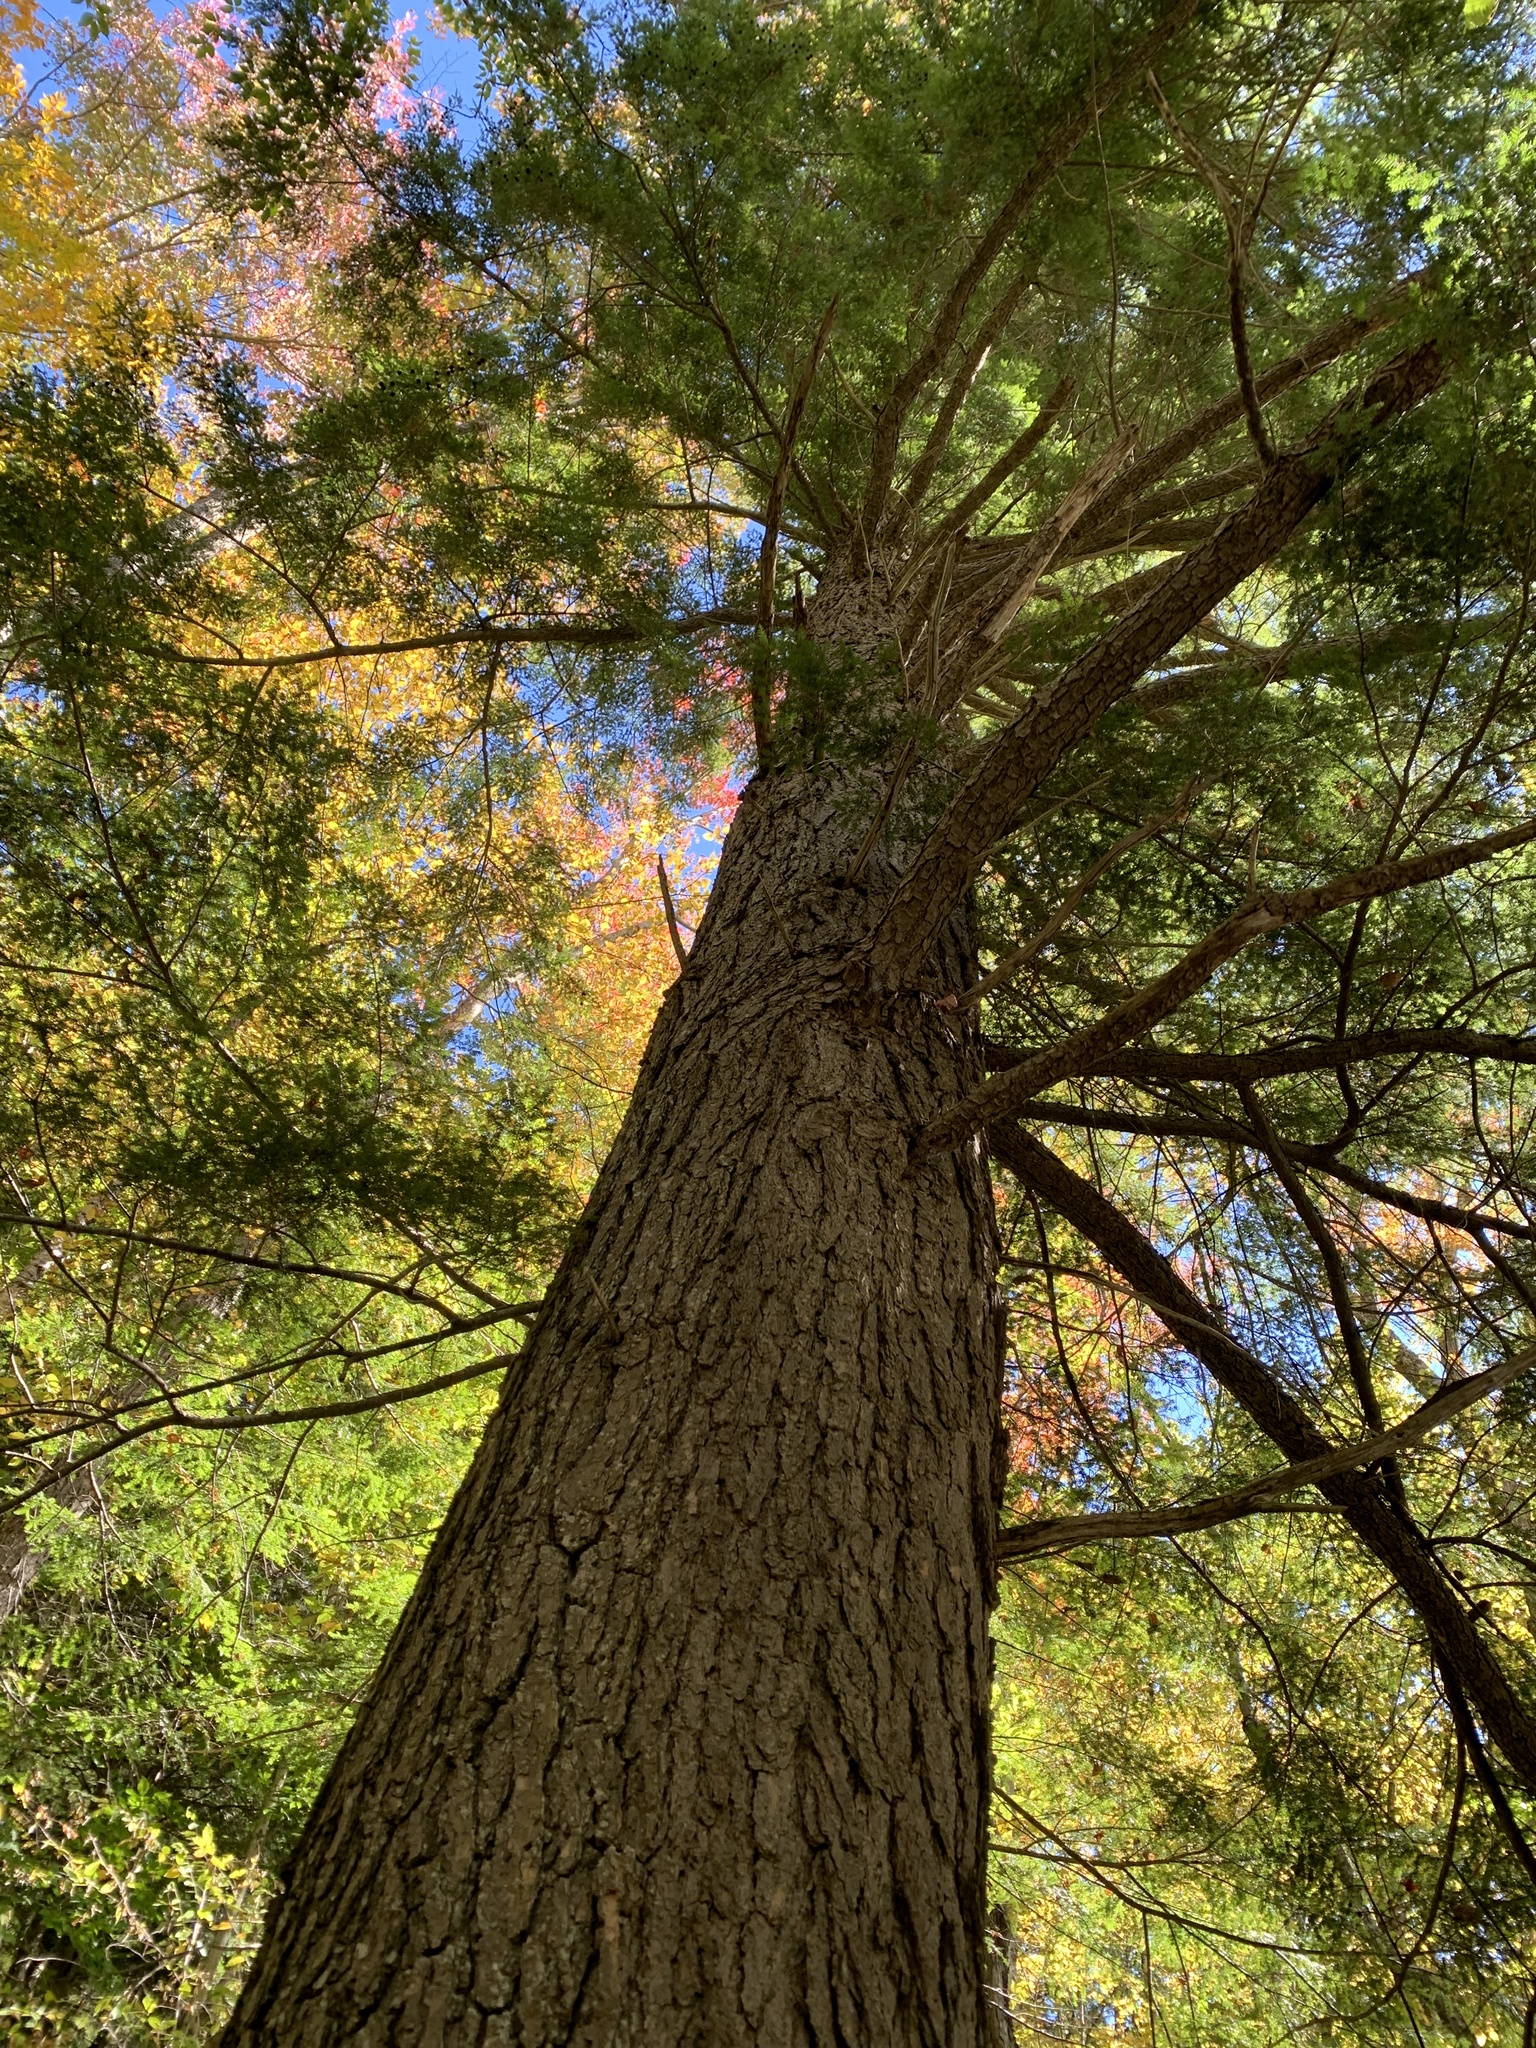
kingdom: Plantae
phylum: Tracheophyta
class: Pinopsida
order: Pinales
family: Pinaceae
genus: Tsuga
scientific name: Tsuga canadensis
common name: Eastern hemlock
